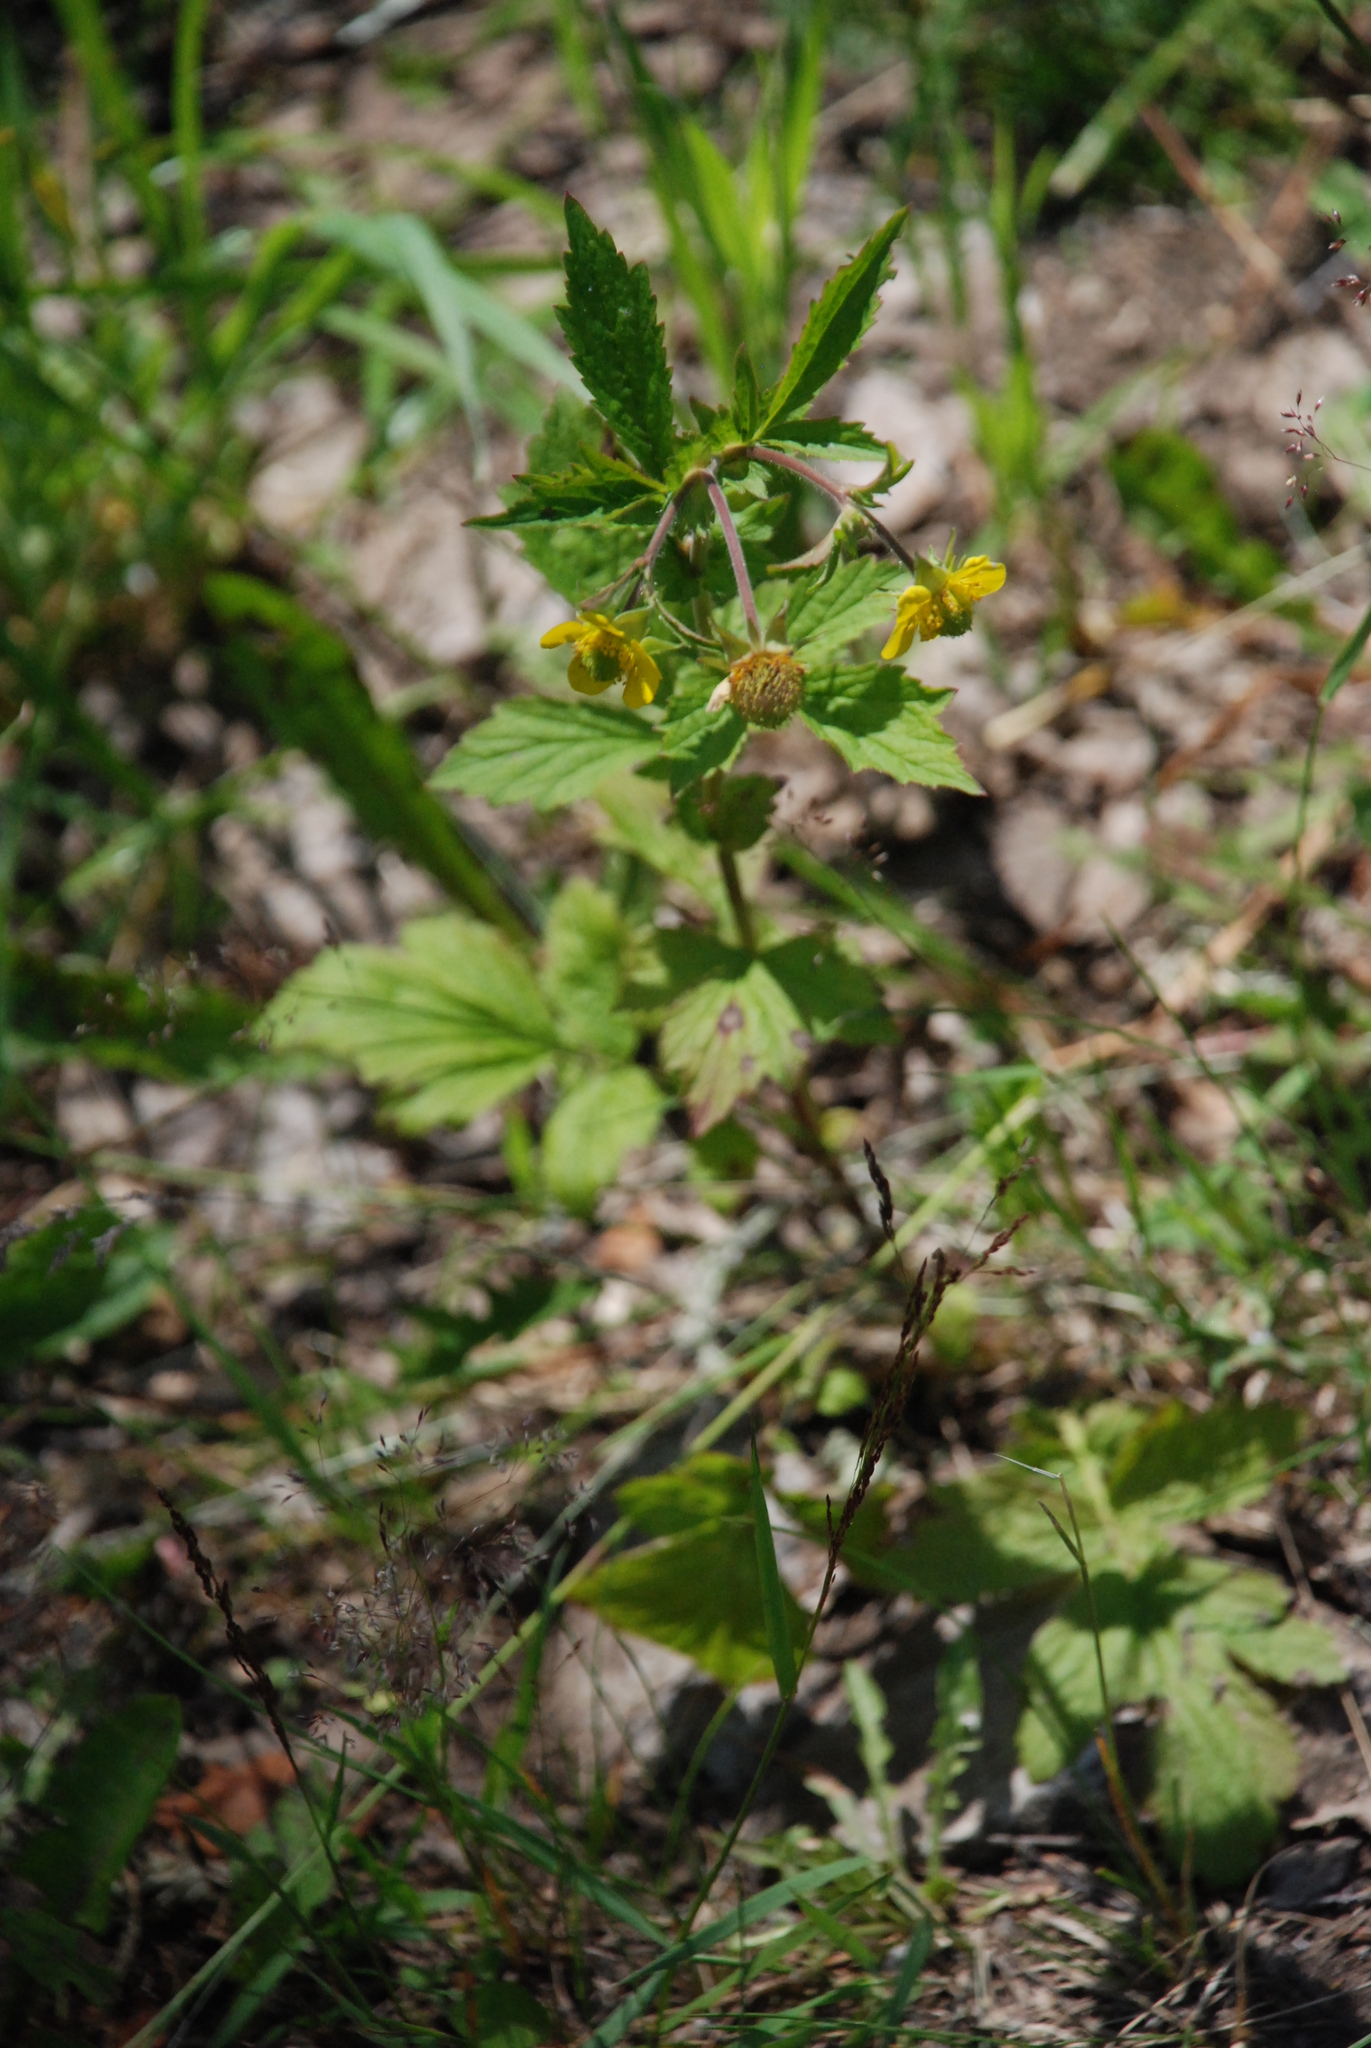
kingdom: Plantae
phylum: Tracheophyta
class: Magnoliopsida
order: Rosales
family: Rosaceae
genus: Geum
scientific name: Geum aleppicum
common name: Yellow avens
